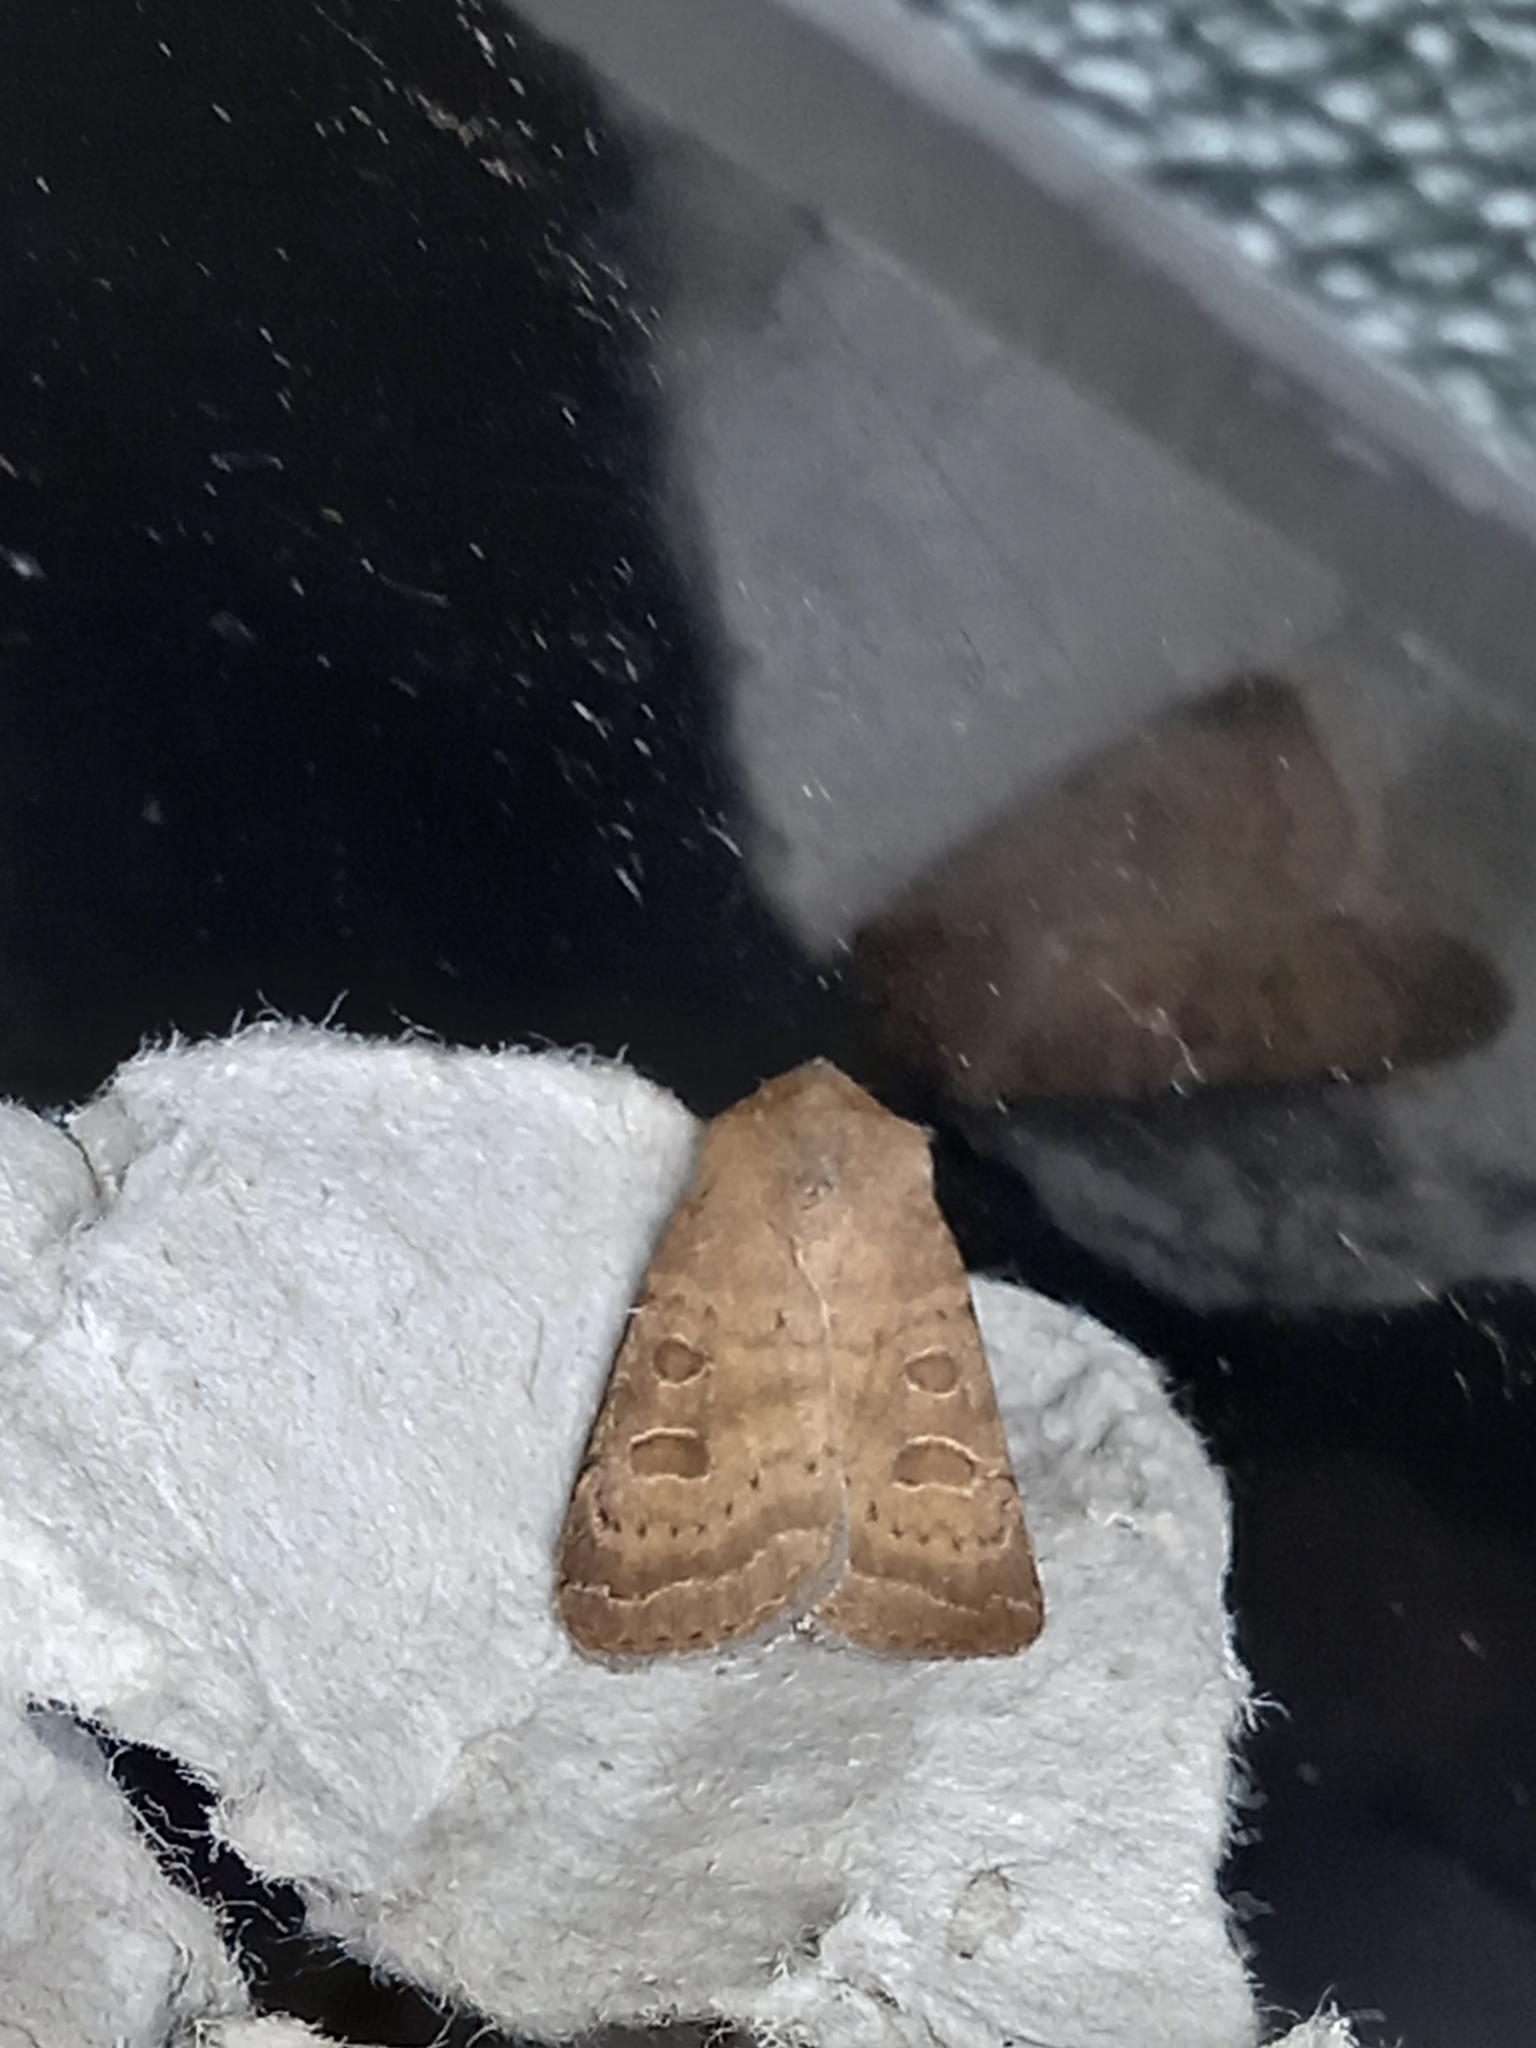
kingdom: Animalia
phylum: Arthropoda
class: Insecta
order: Lepidoptera
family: Noctuidae
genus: Hoplodrina
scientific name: Hoplodrina octogenaria
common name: Uncertain
